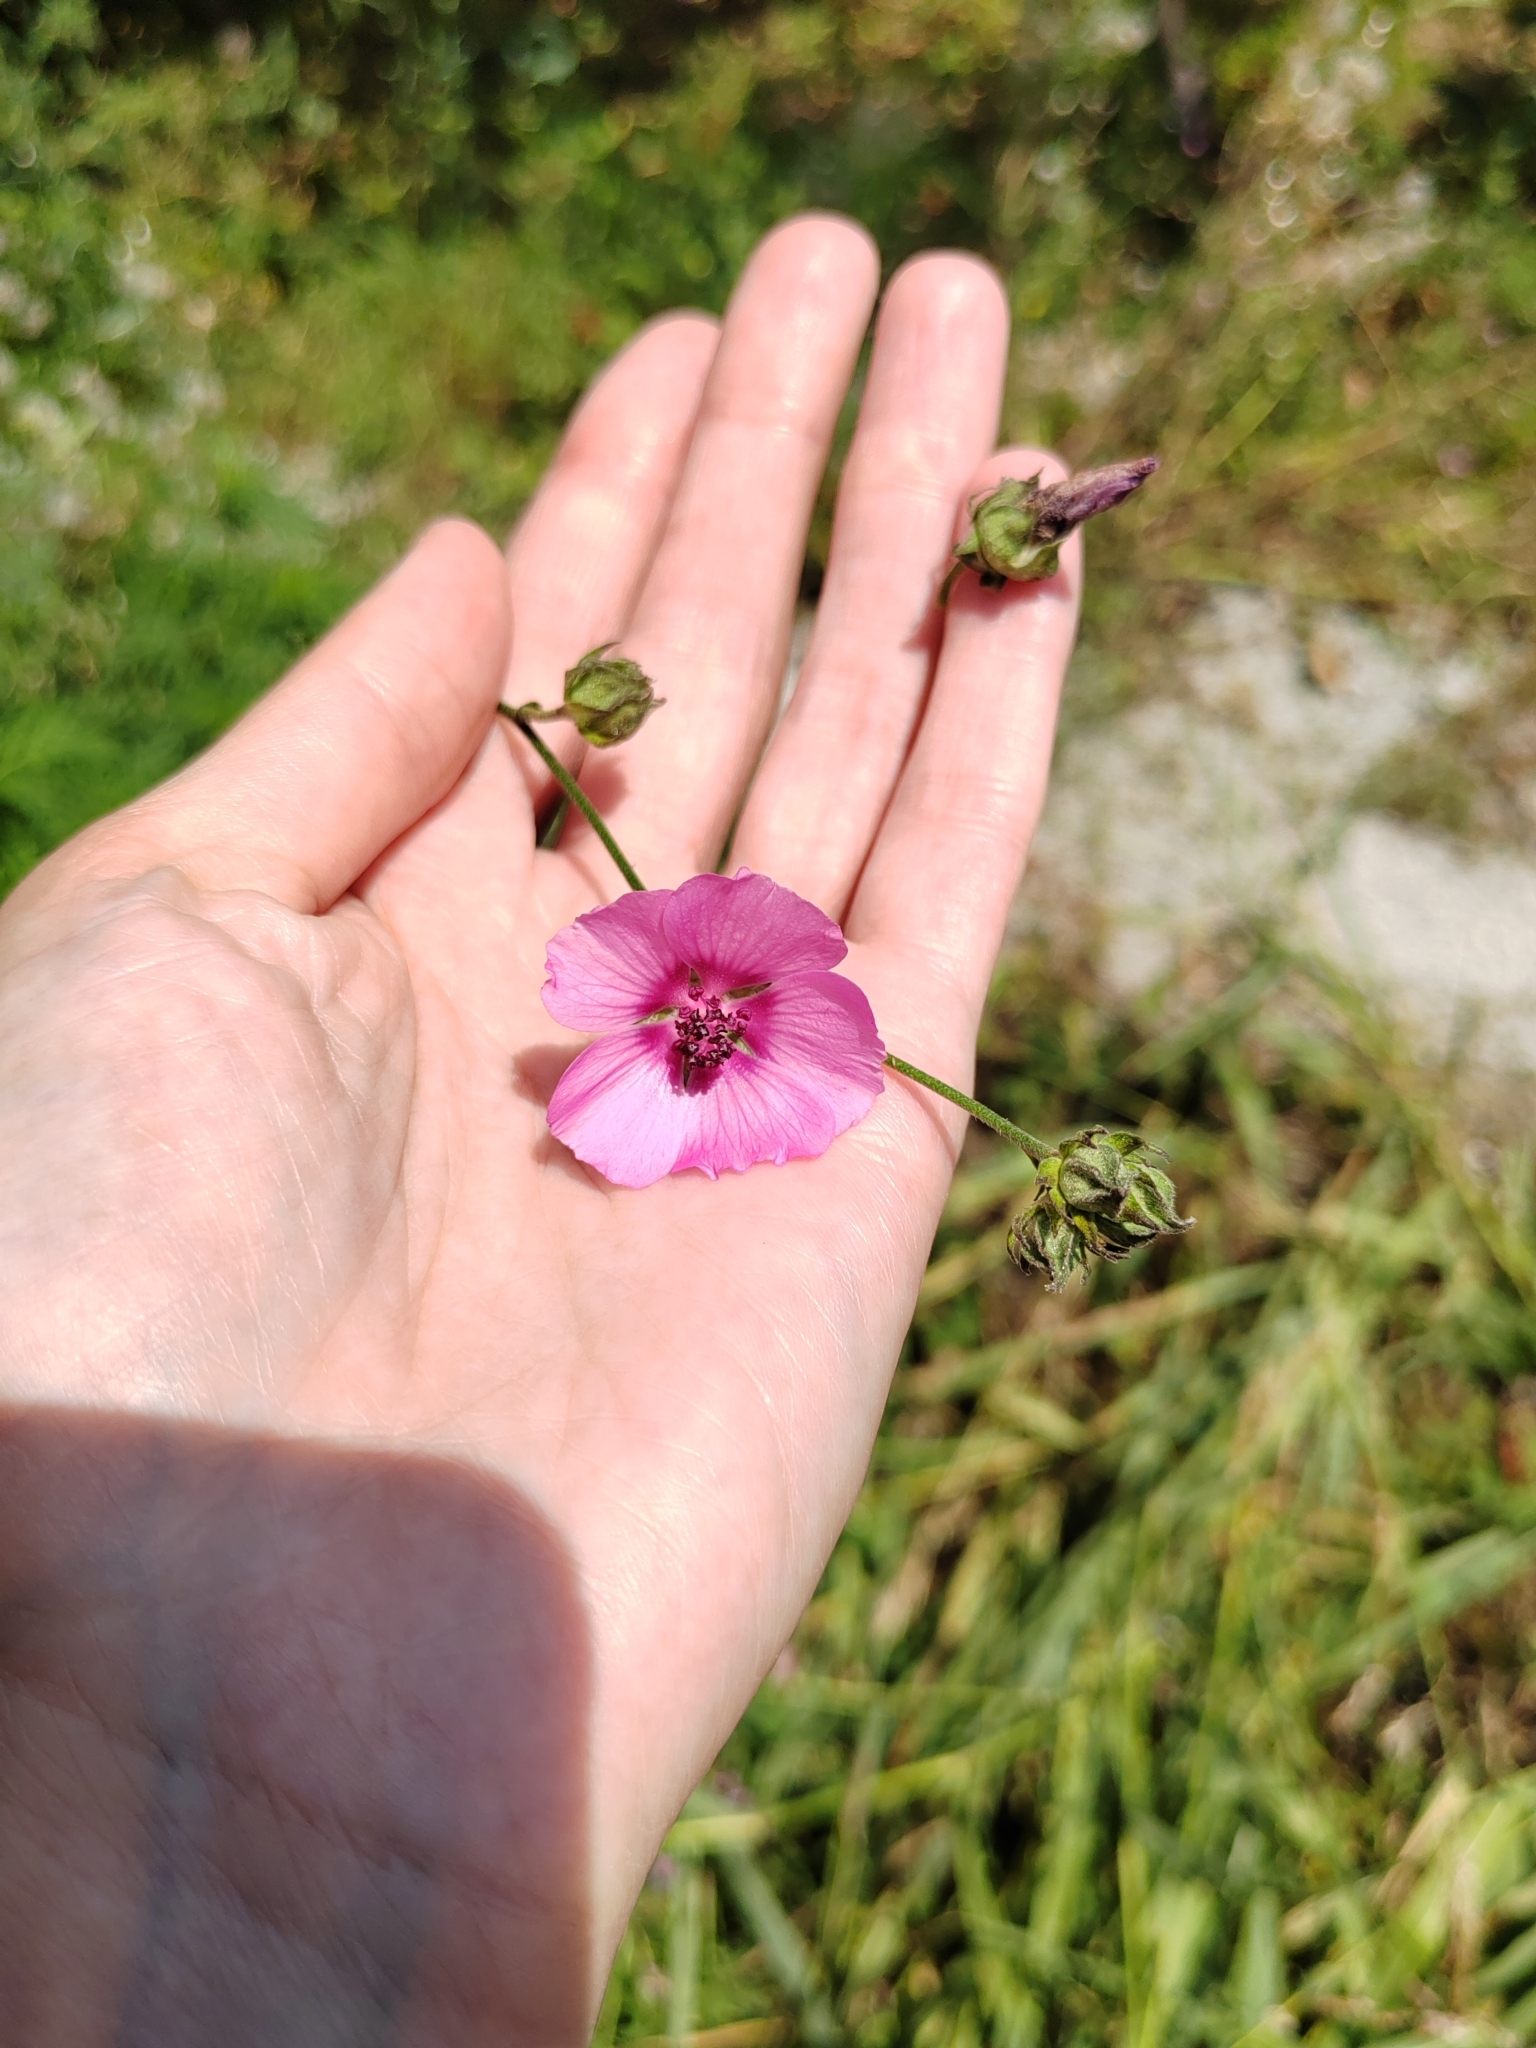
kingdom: Plantae
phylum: Tracheophyta
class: Magnoliopsida
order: Malvales
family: Malvaceae
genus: Althaea
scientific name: Althaea cannabina
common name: Palm-leaf marshmallow
